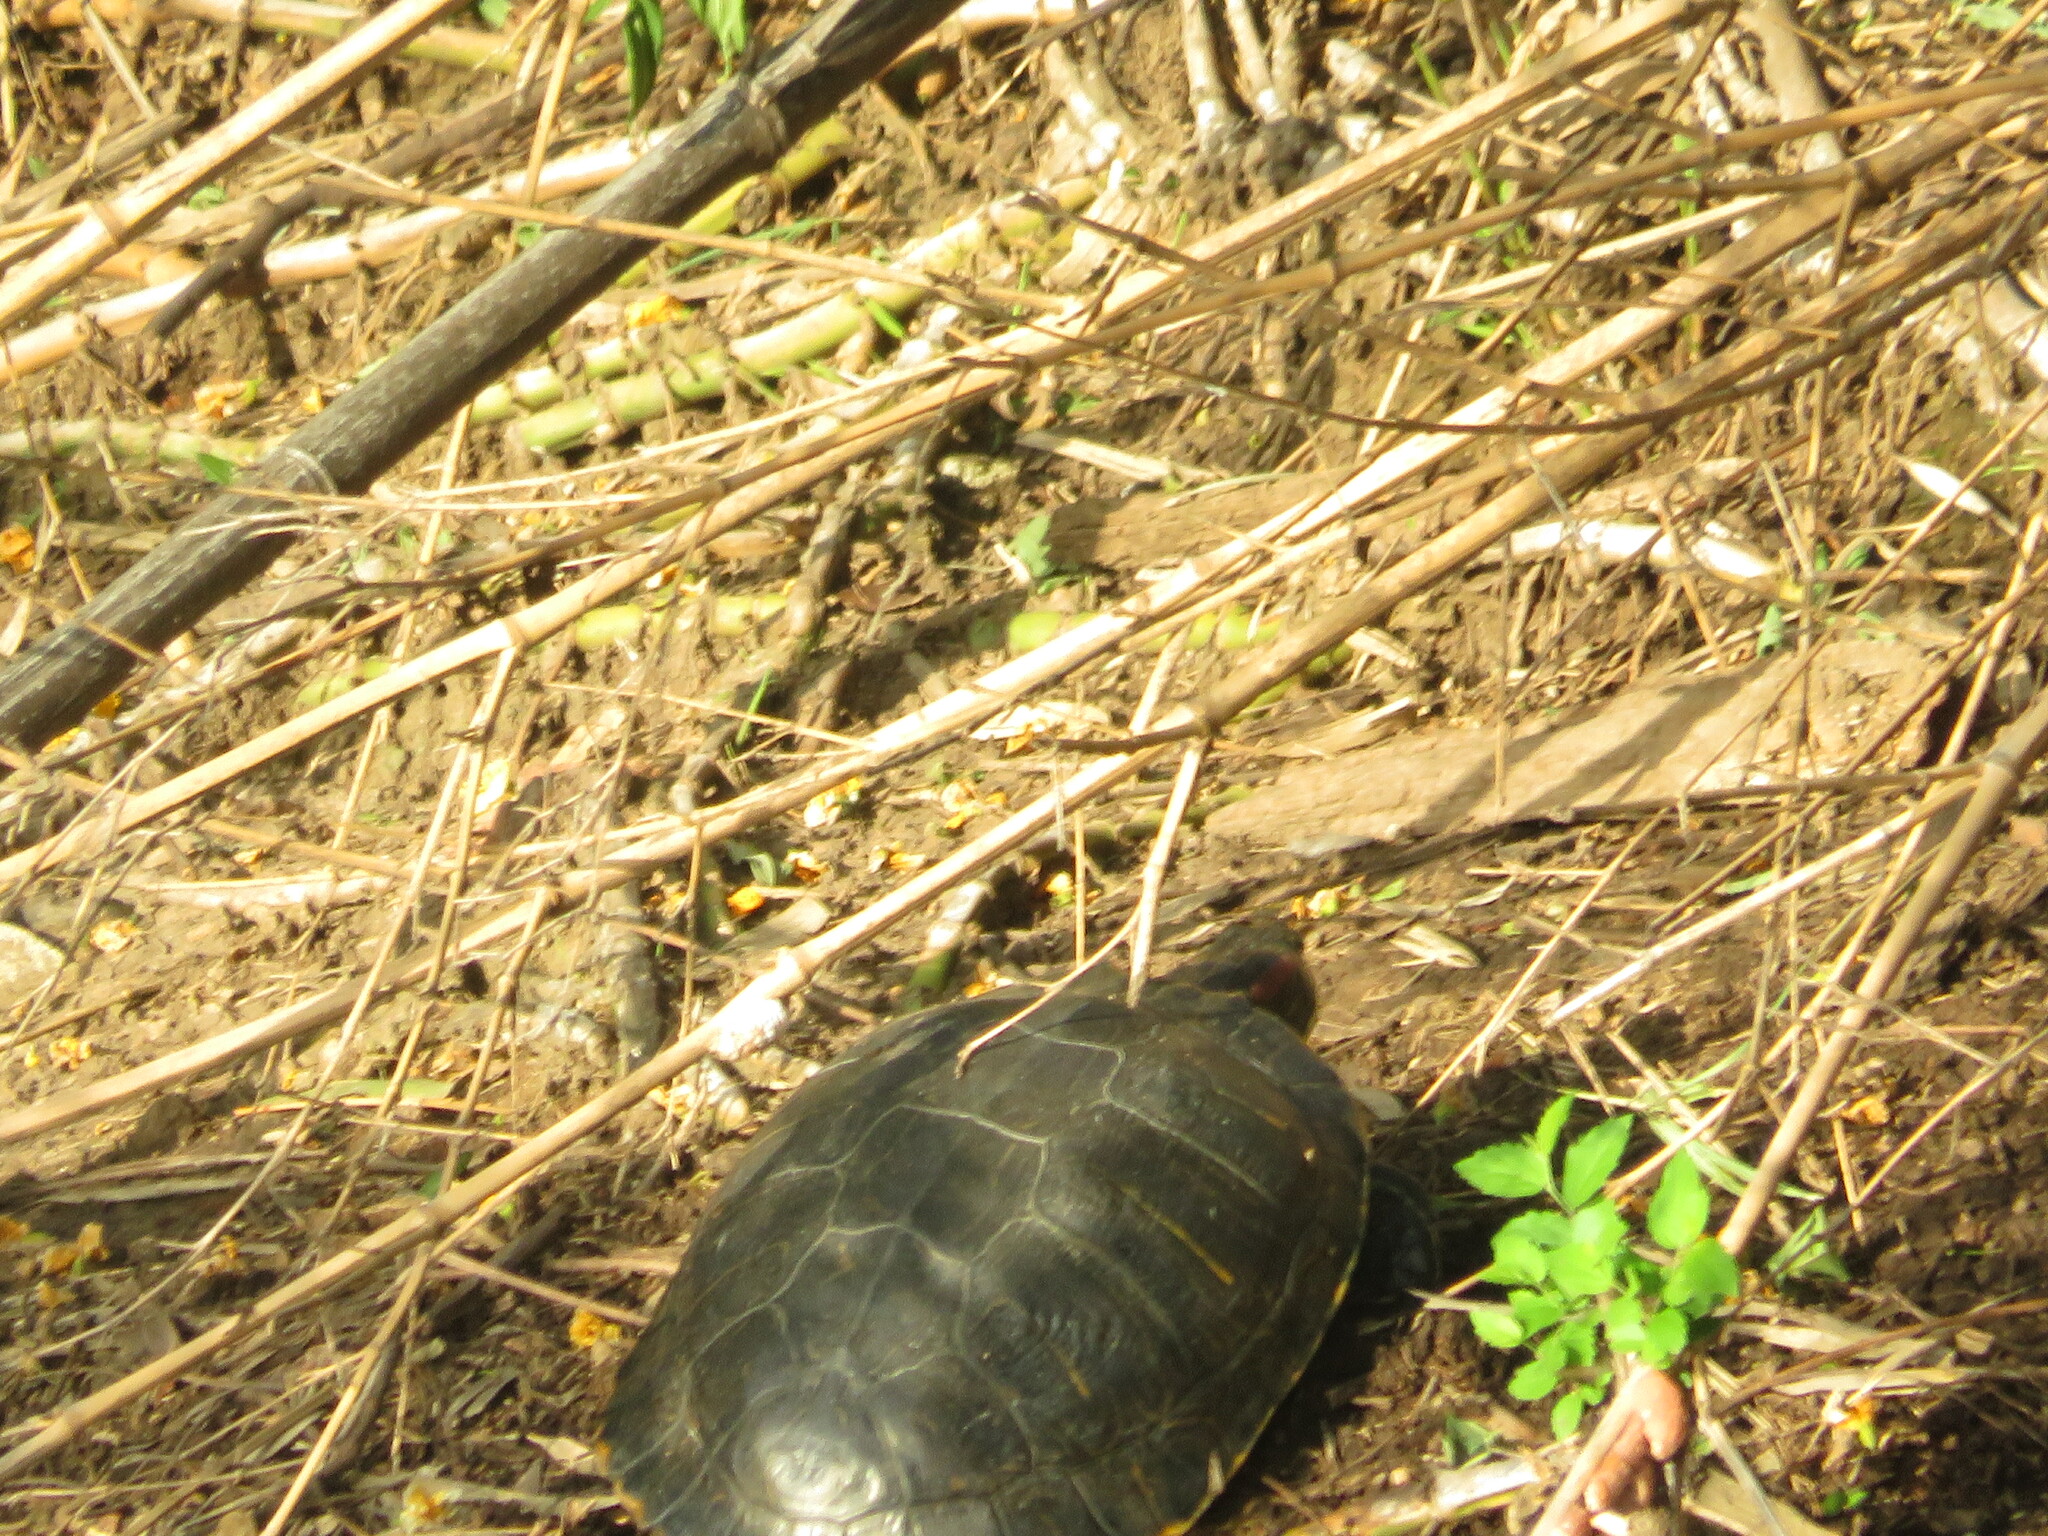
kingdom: Animalia
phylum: Chordata
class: Testudines
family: Emydidae
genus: Trachemys
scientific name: Trachemys scripta
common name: Slider
